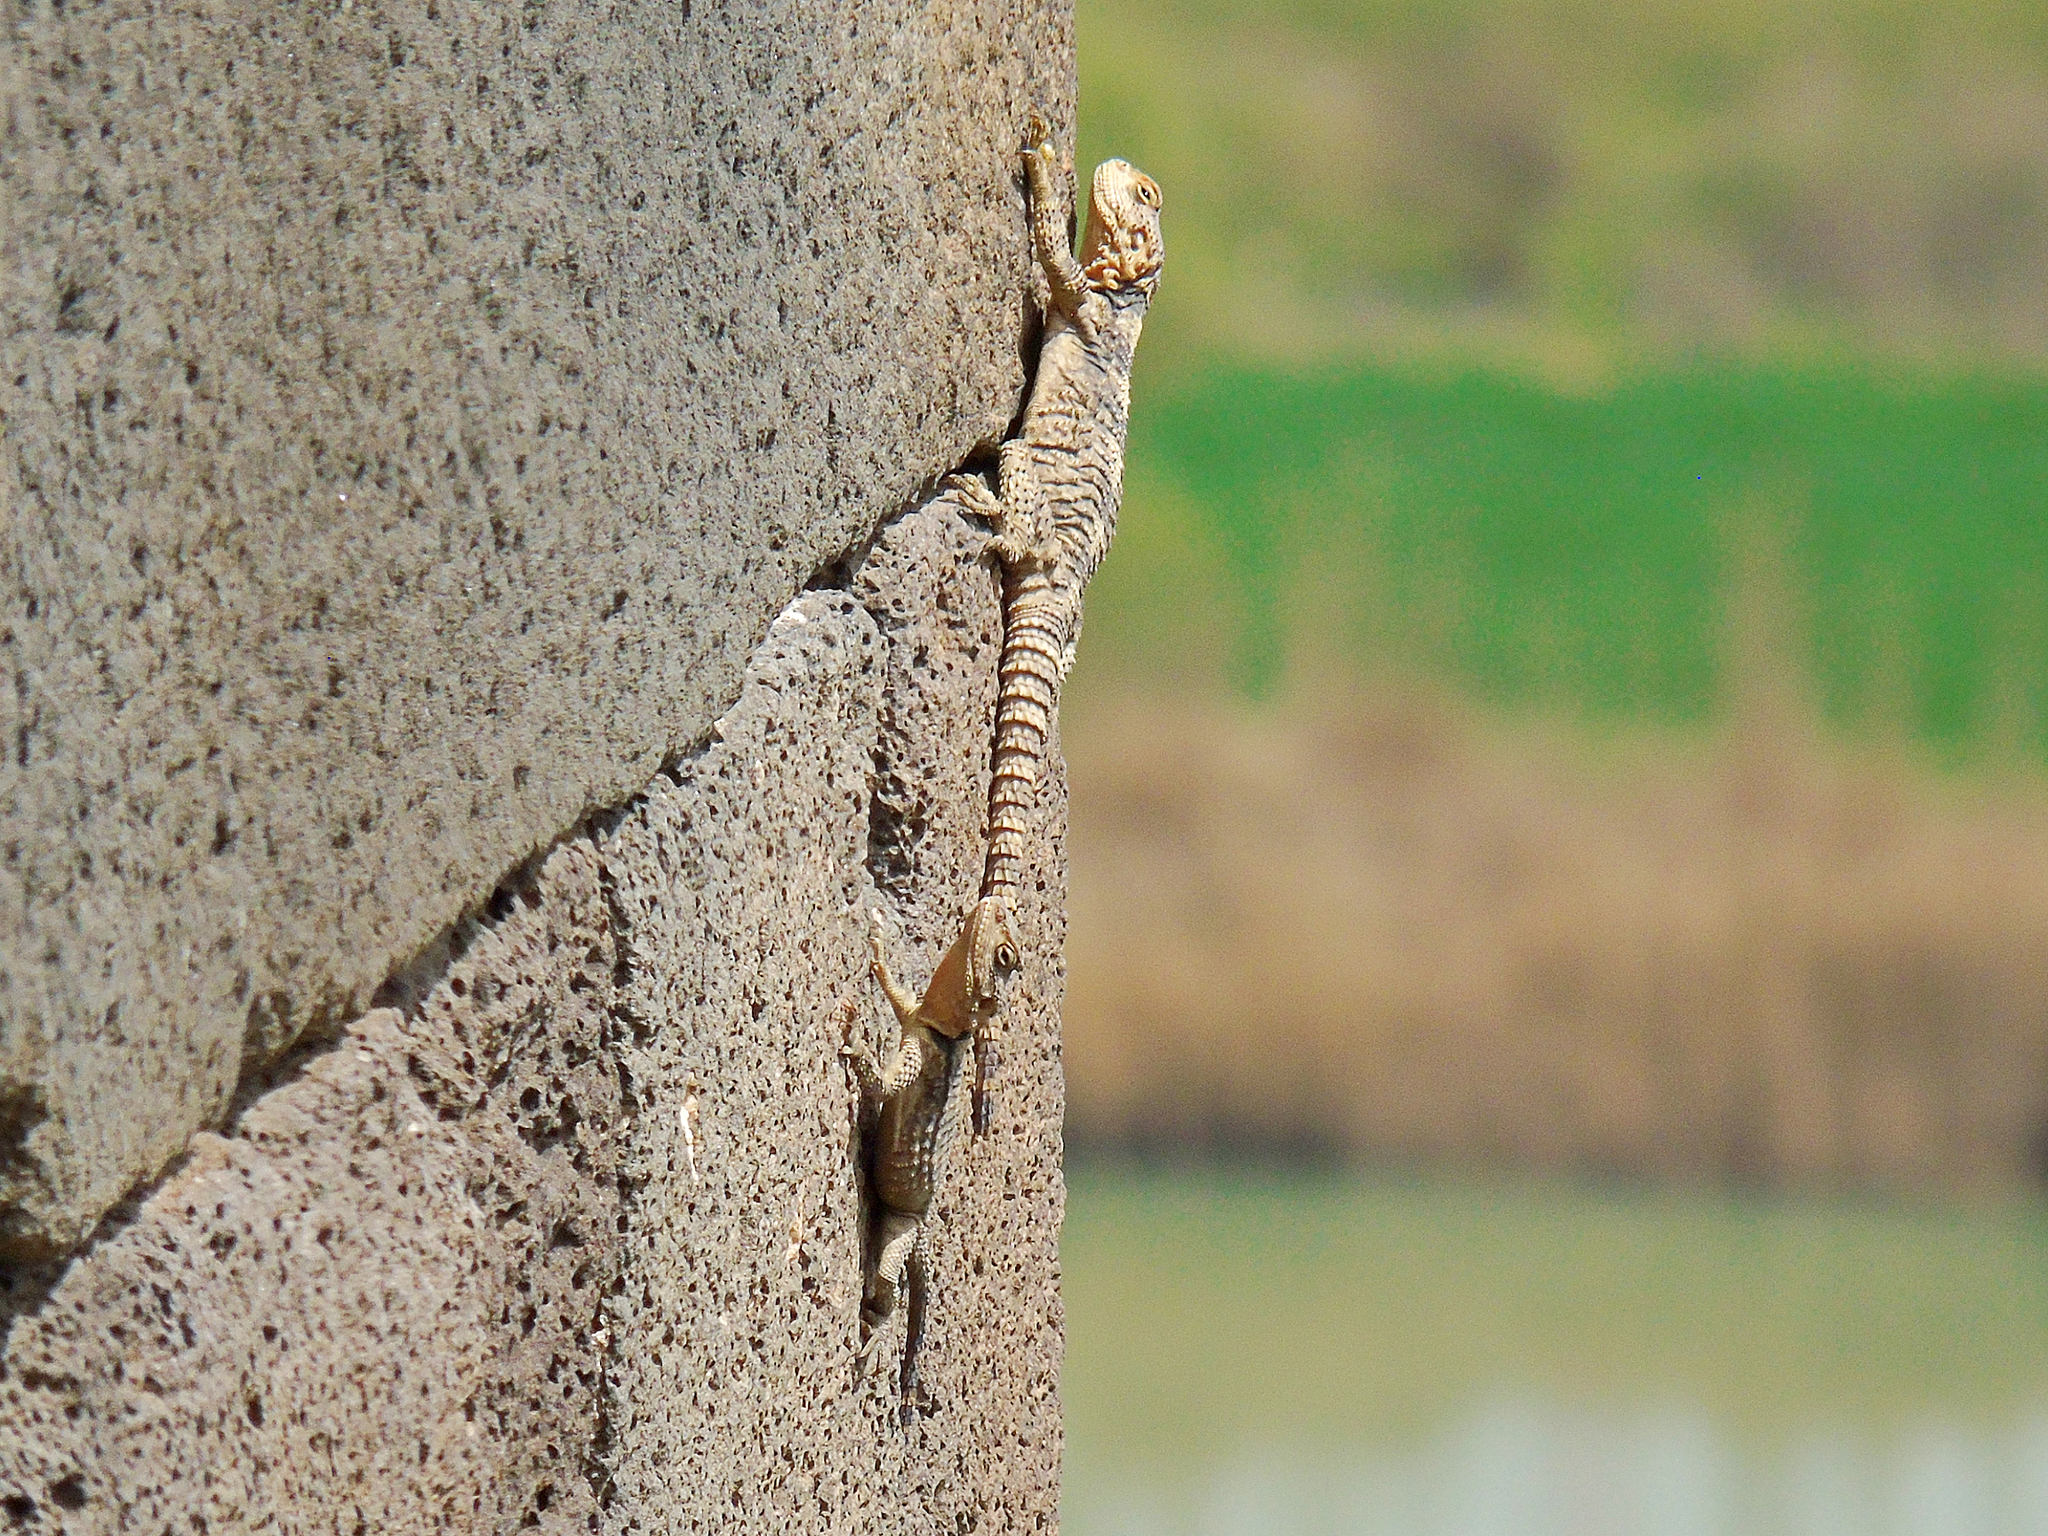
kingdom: Animalia
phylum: Chordata
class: Squamata
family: Agamidae
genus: Stellagama
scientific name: Stellagama stellio
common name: Starred agama
